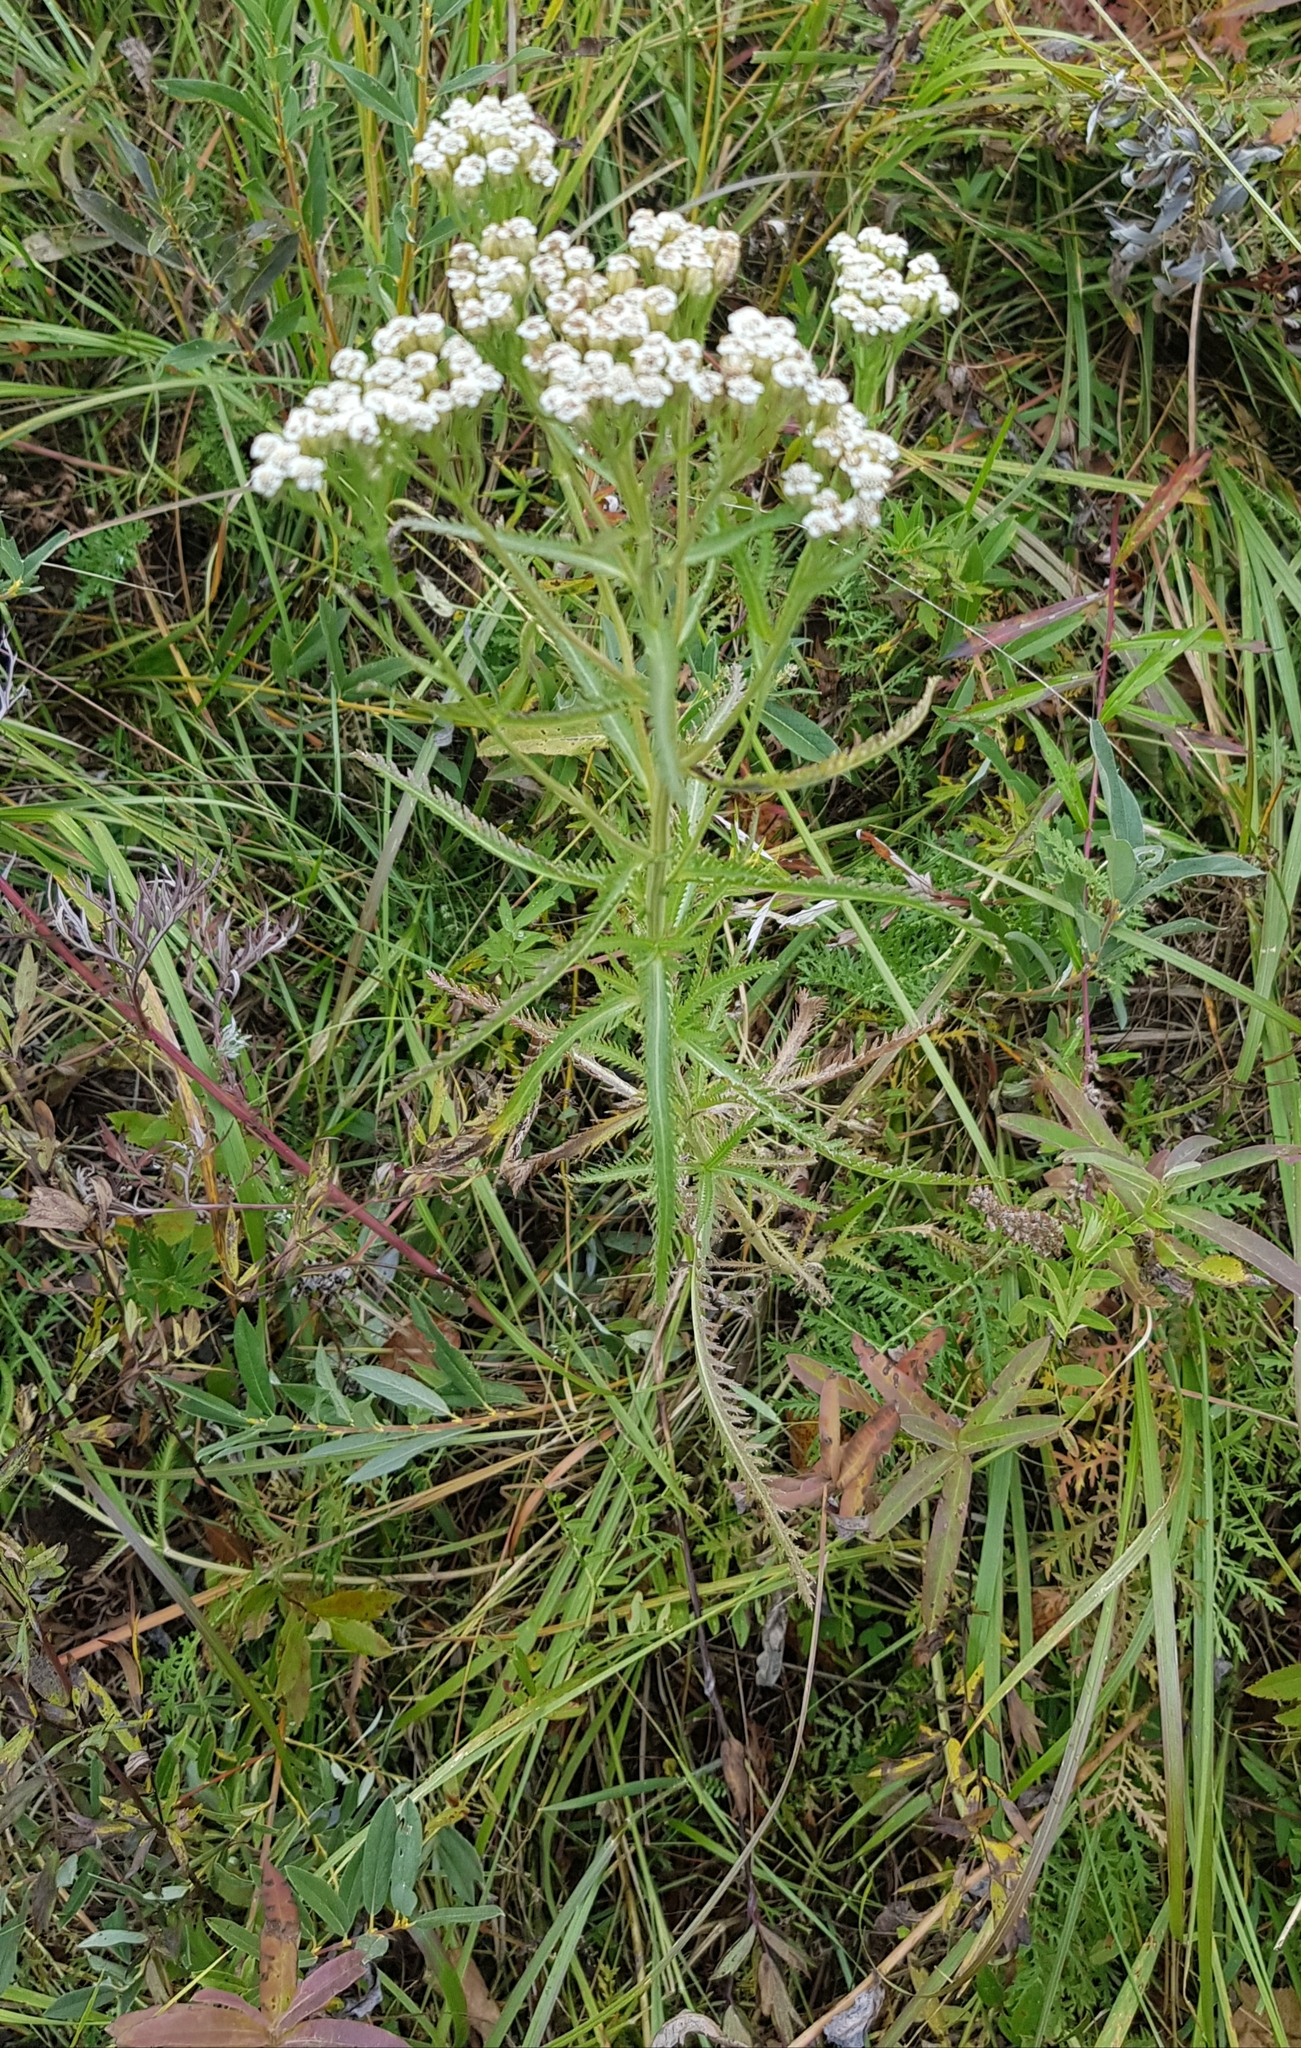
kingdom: Plantae
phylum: Tracheophyta
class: Magnoliopsida
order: Asterales
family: Asteraceae
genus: Achillea
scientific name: Achillea alpina
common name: Siberian yarrow
